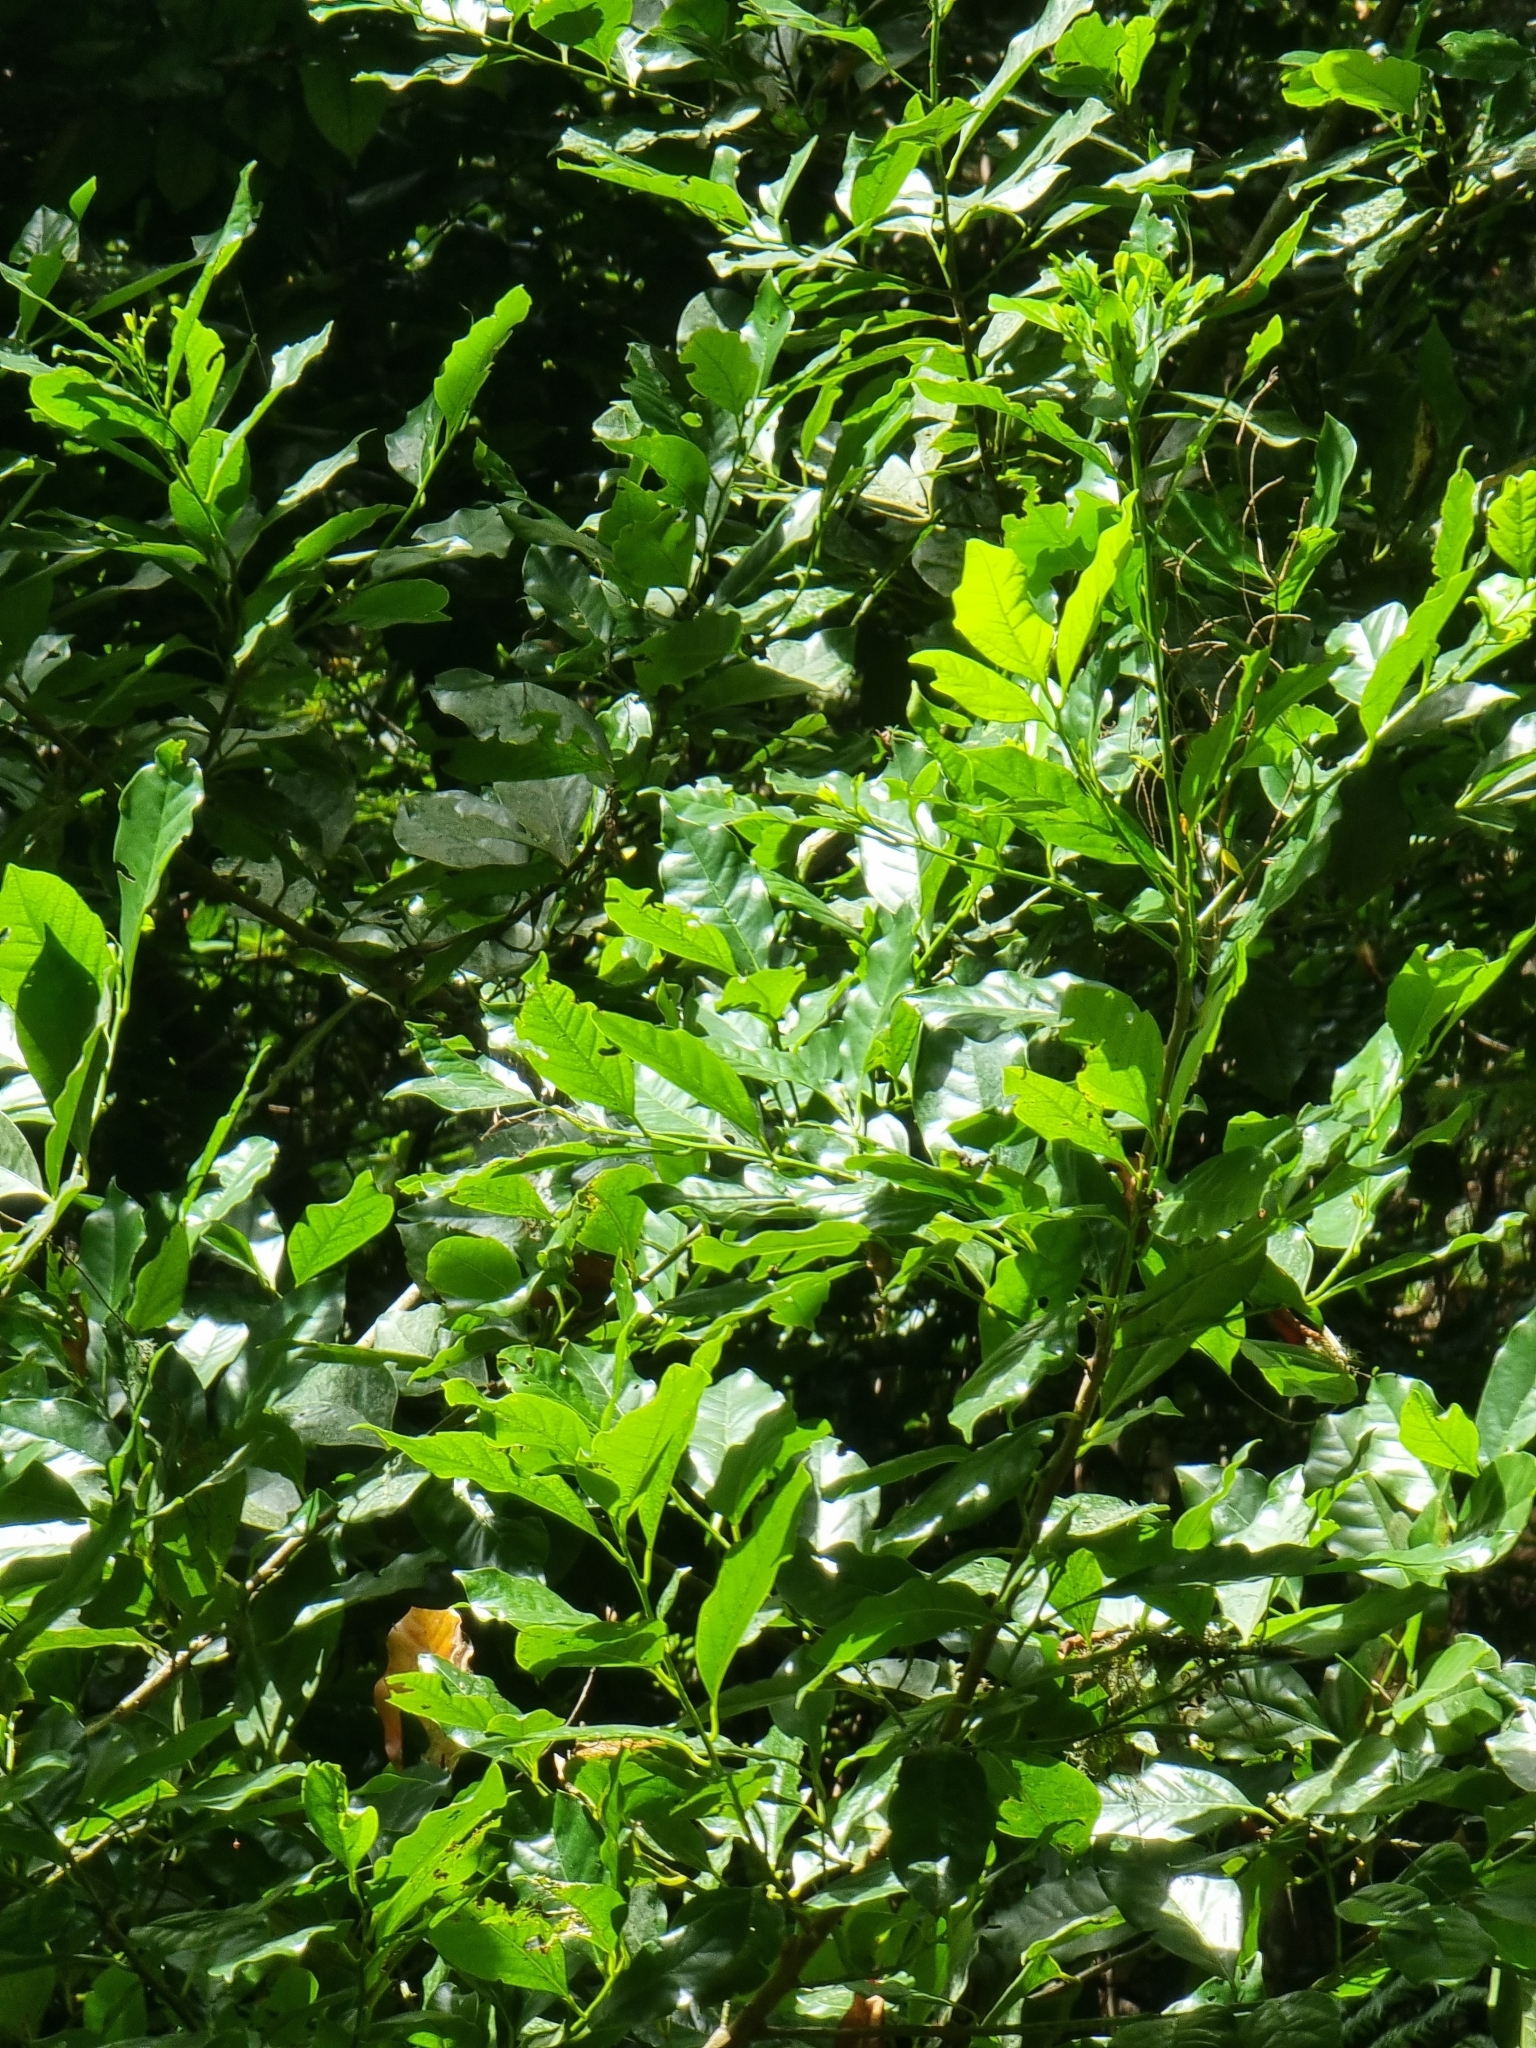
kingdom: Plantae
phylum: Tracheophyta
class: Magnoliopsida
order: Laurales
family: Lauraceae
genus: Mespilodaphne
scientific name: Mespilodaphne foetens
